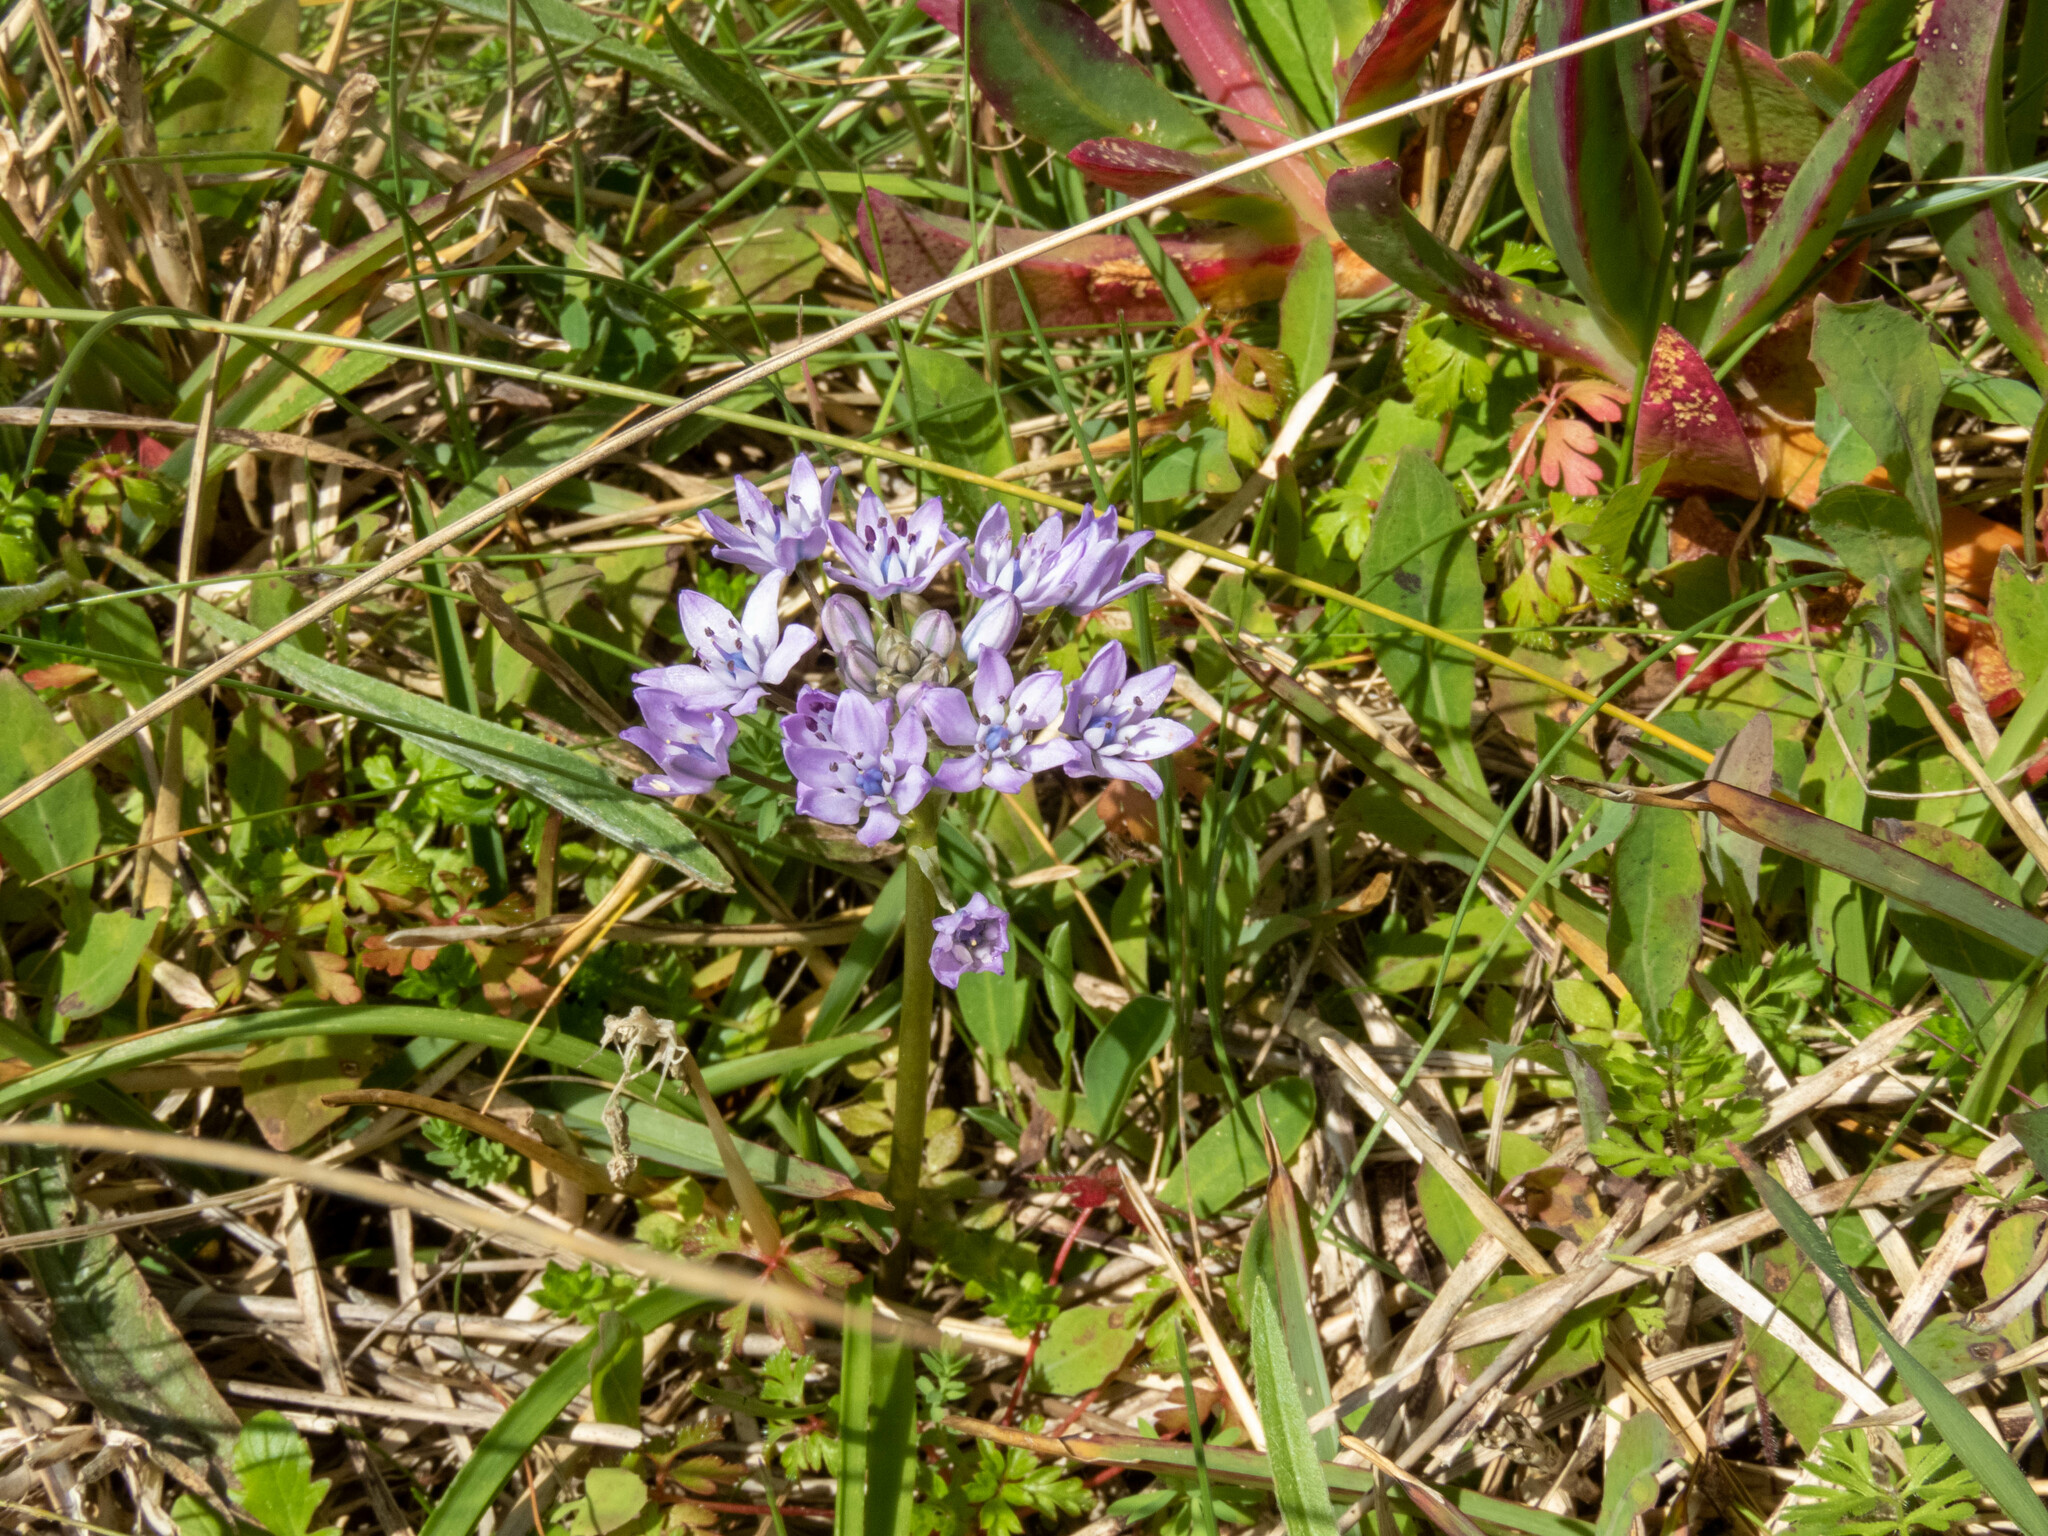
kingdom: Plantae
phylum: Tracheophyta
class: Liliopsida
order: Asparagales
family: Asparagaceae
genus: Scilla
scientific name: Scilla verna
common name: Spring squill
